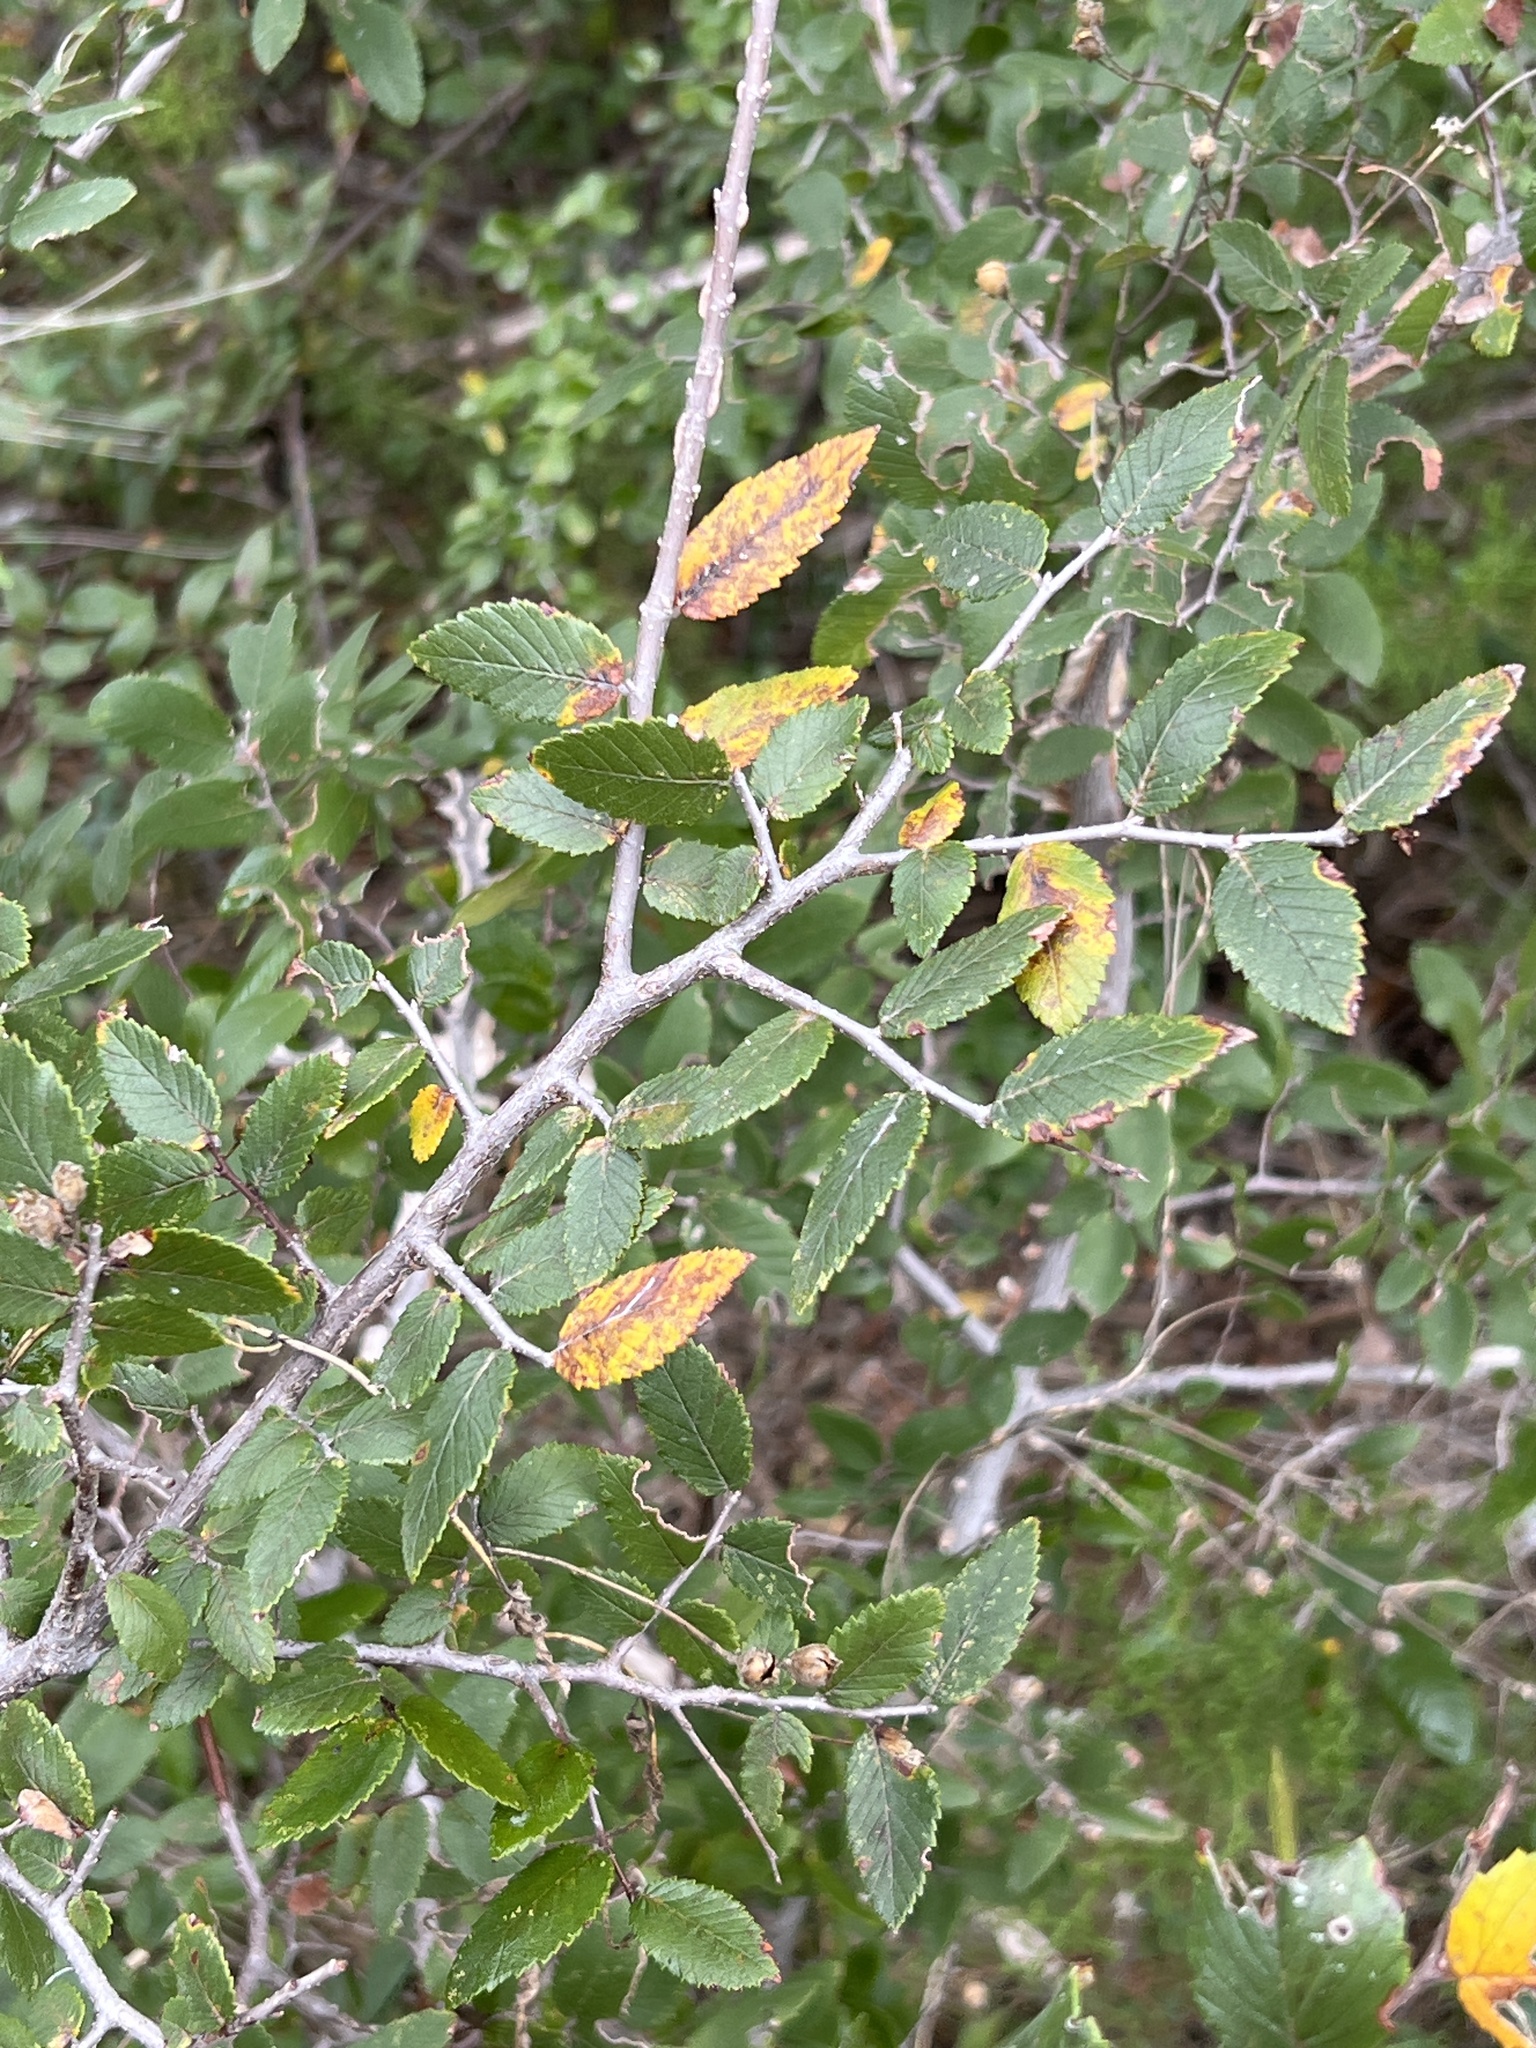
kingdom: Plantae
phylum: Tracheophyta
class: Magnoliopsida
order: Rosales
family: Ulmaceae
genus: Ulmus
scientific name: Ulmus crassifolia
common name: Basket elm
